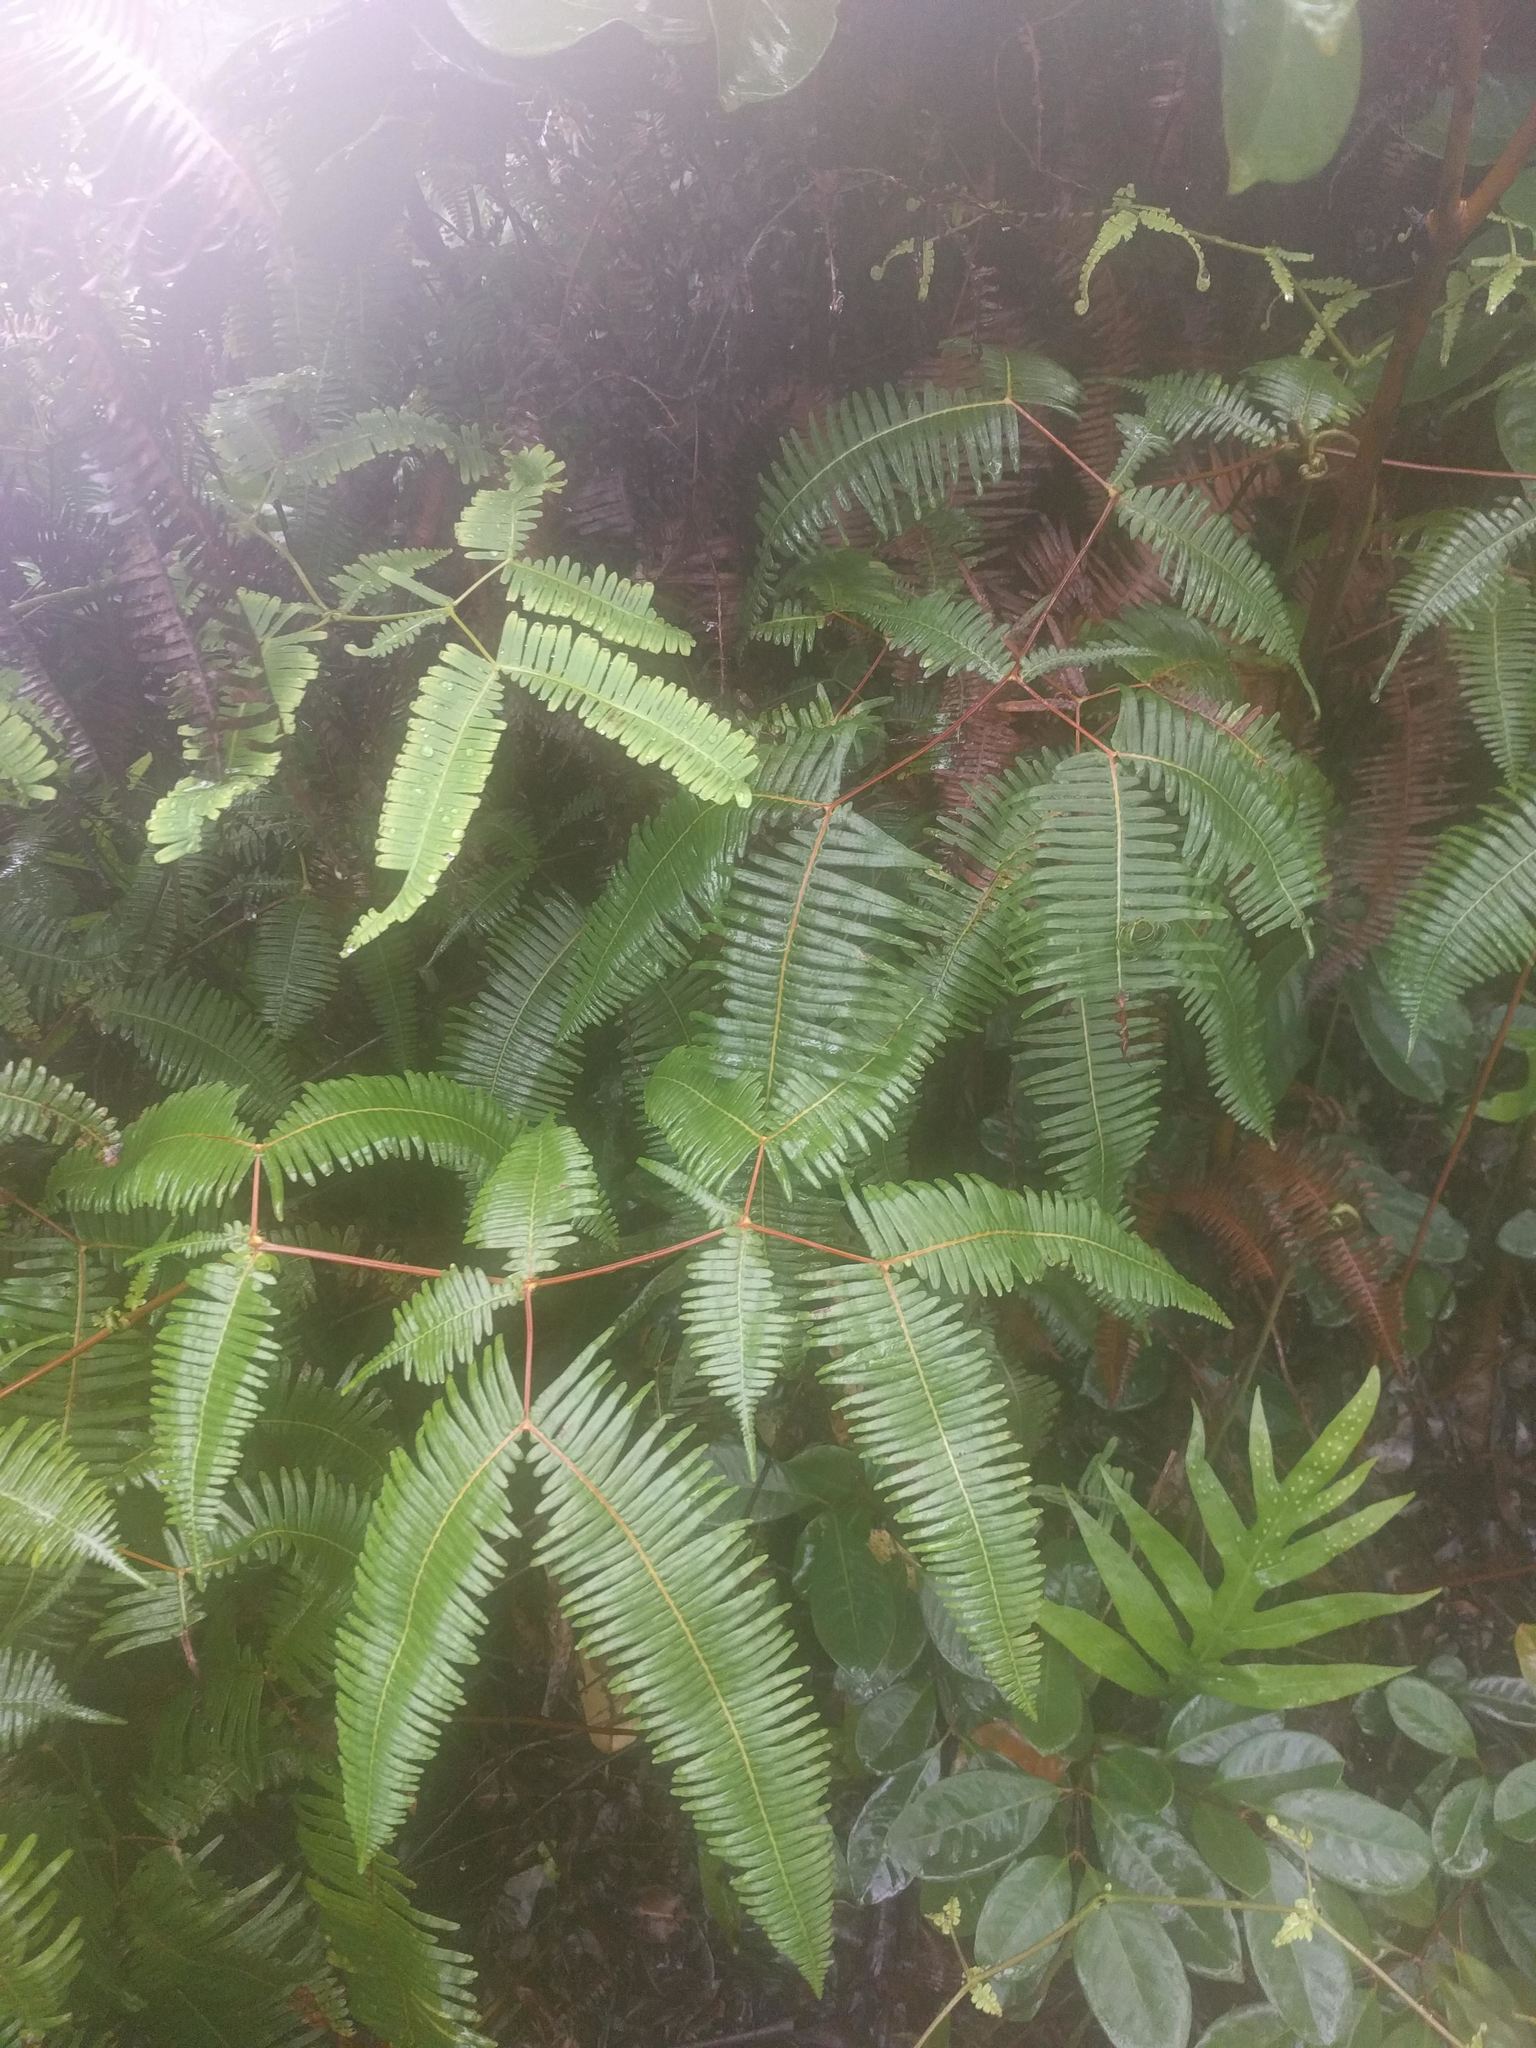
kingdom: Plantae
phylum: Tracheophyta
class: Polypodiopsida
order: Gleicheniales
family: Gleicheniaceae
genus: Dicranopteris
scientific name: Dicranopteris linearis
